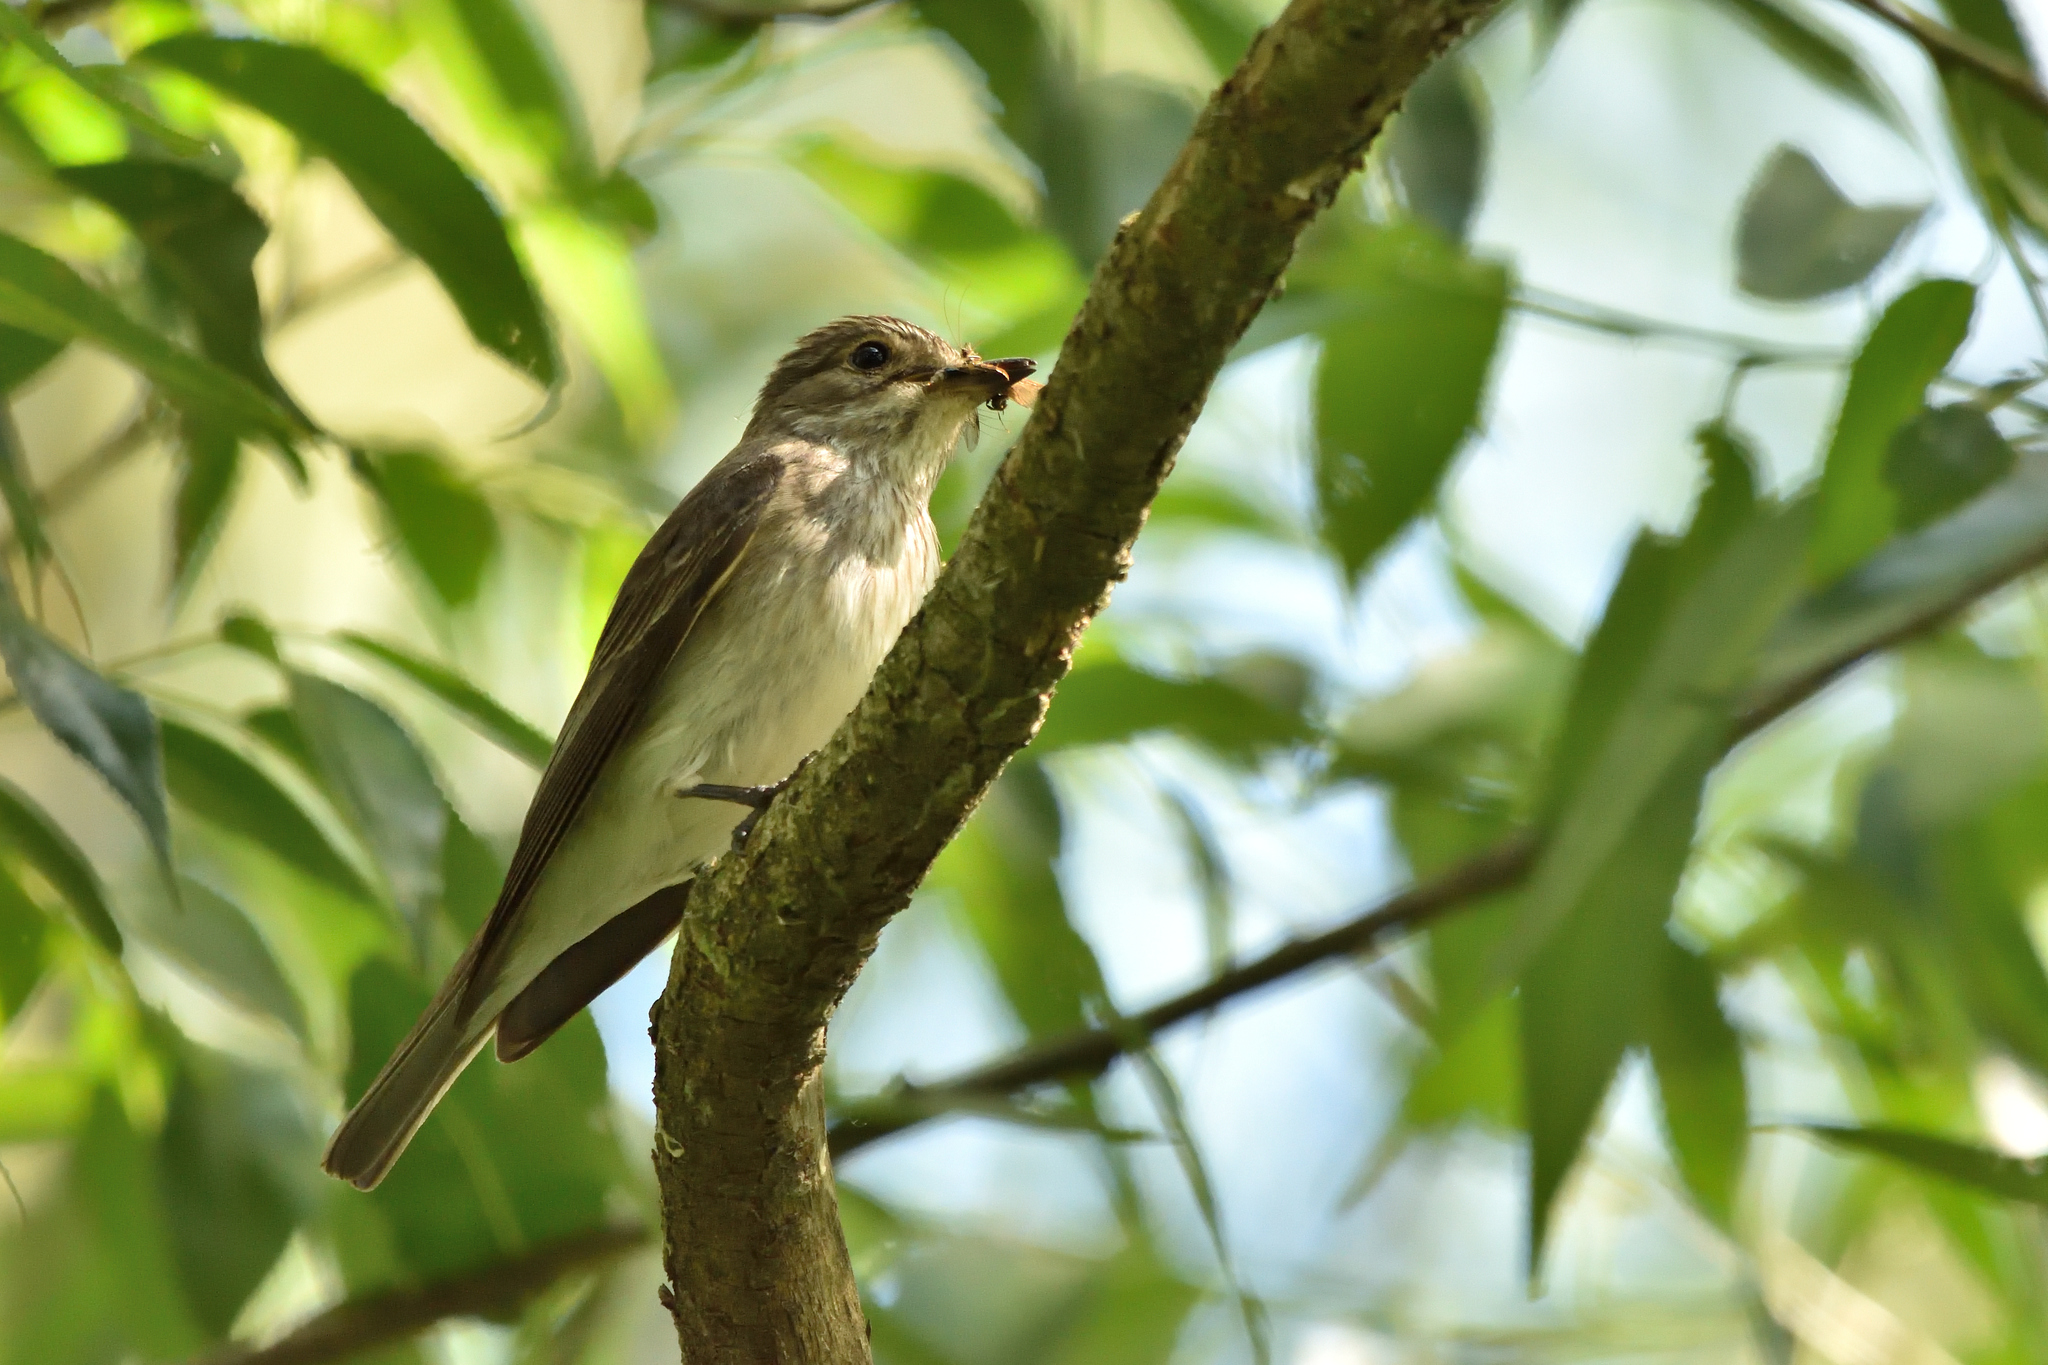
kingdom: Animalia
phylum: Chordata
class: Aves
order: Passeriformes
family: Muscicapidae
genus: Muscicapa
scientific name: Muscicapa striata
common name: Spotted flycatcher
